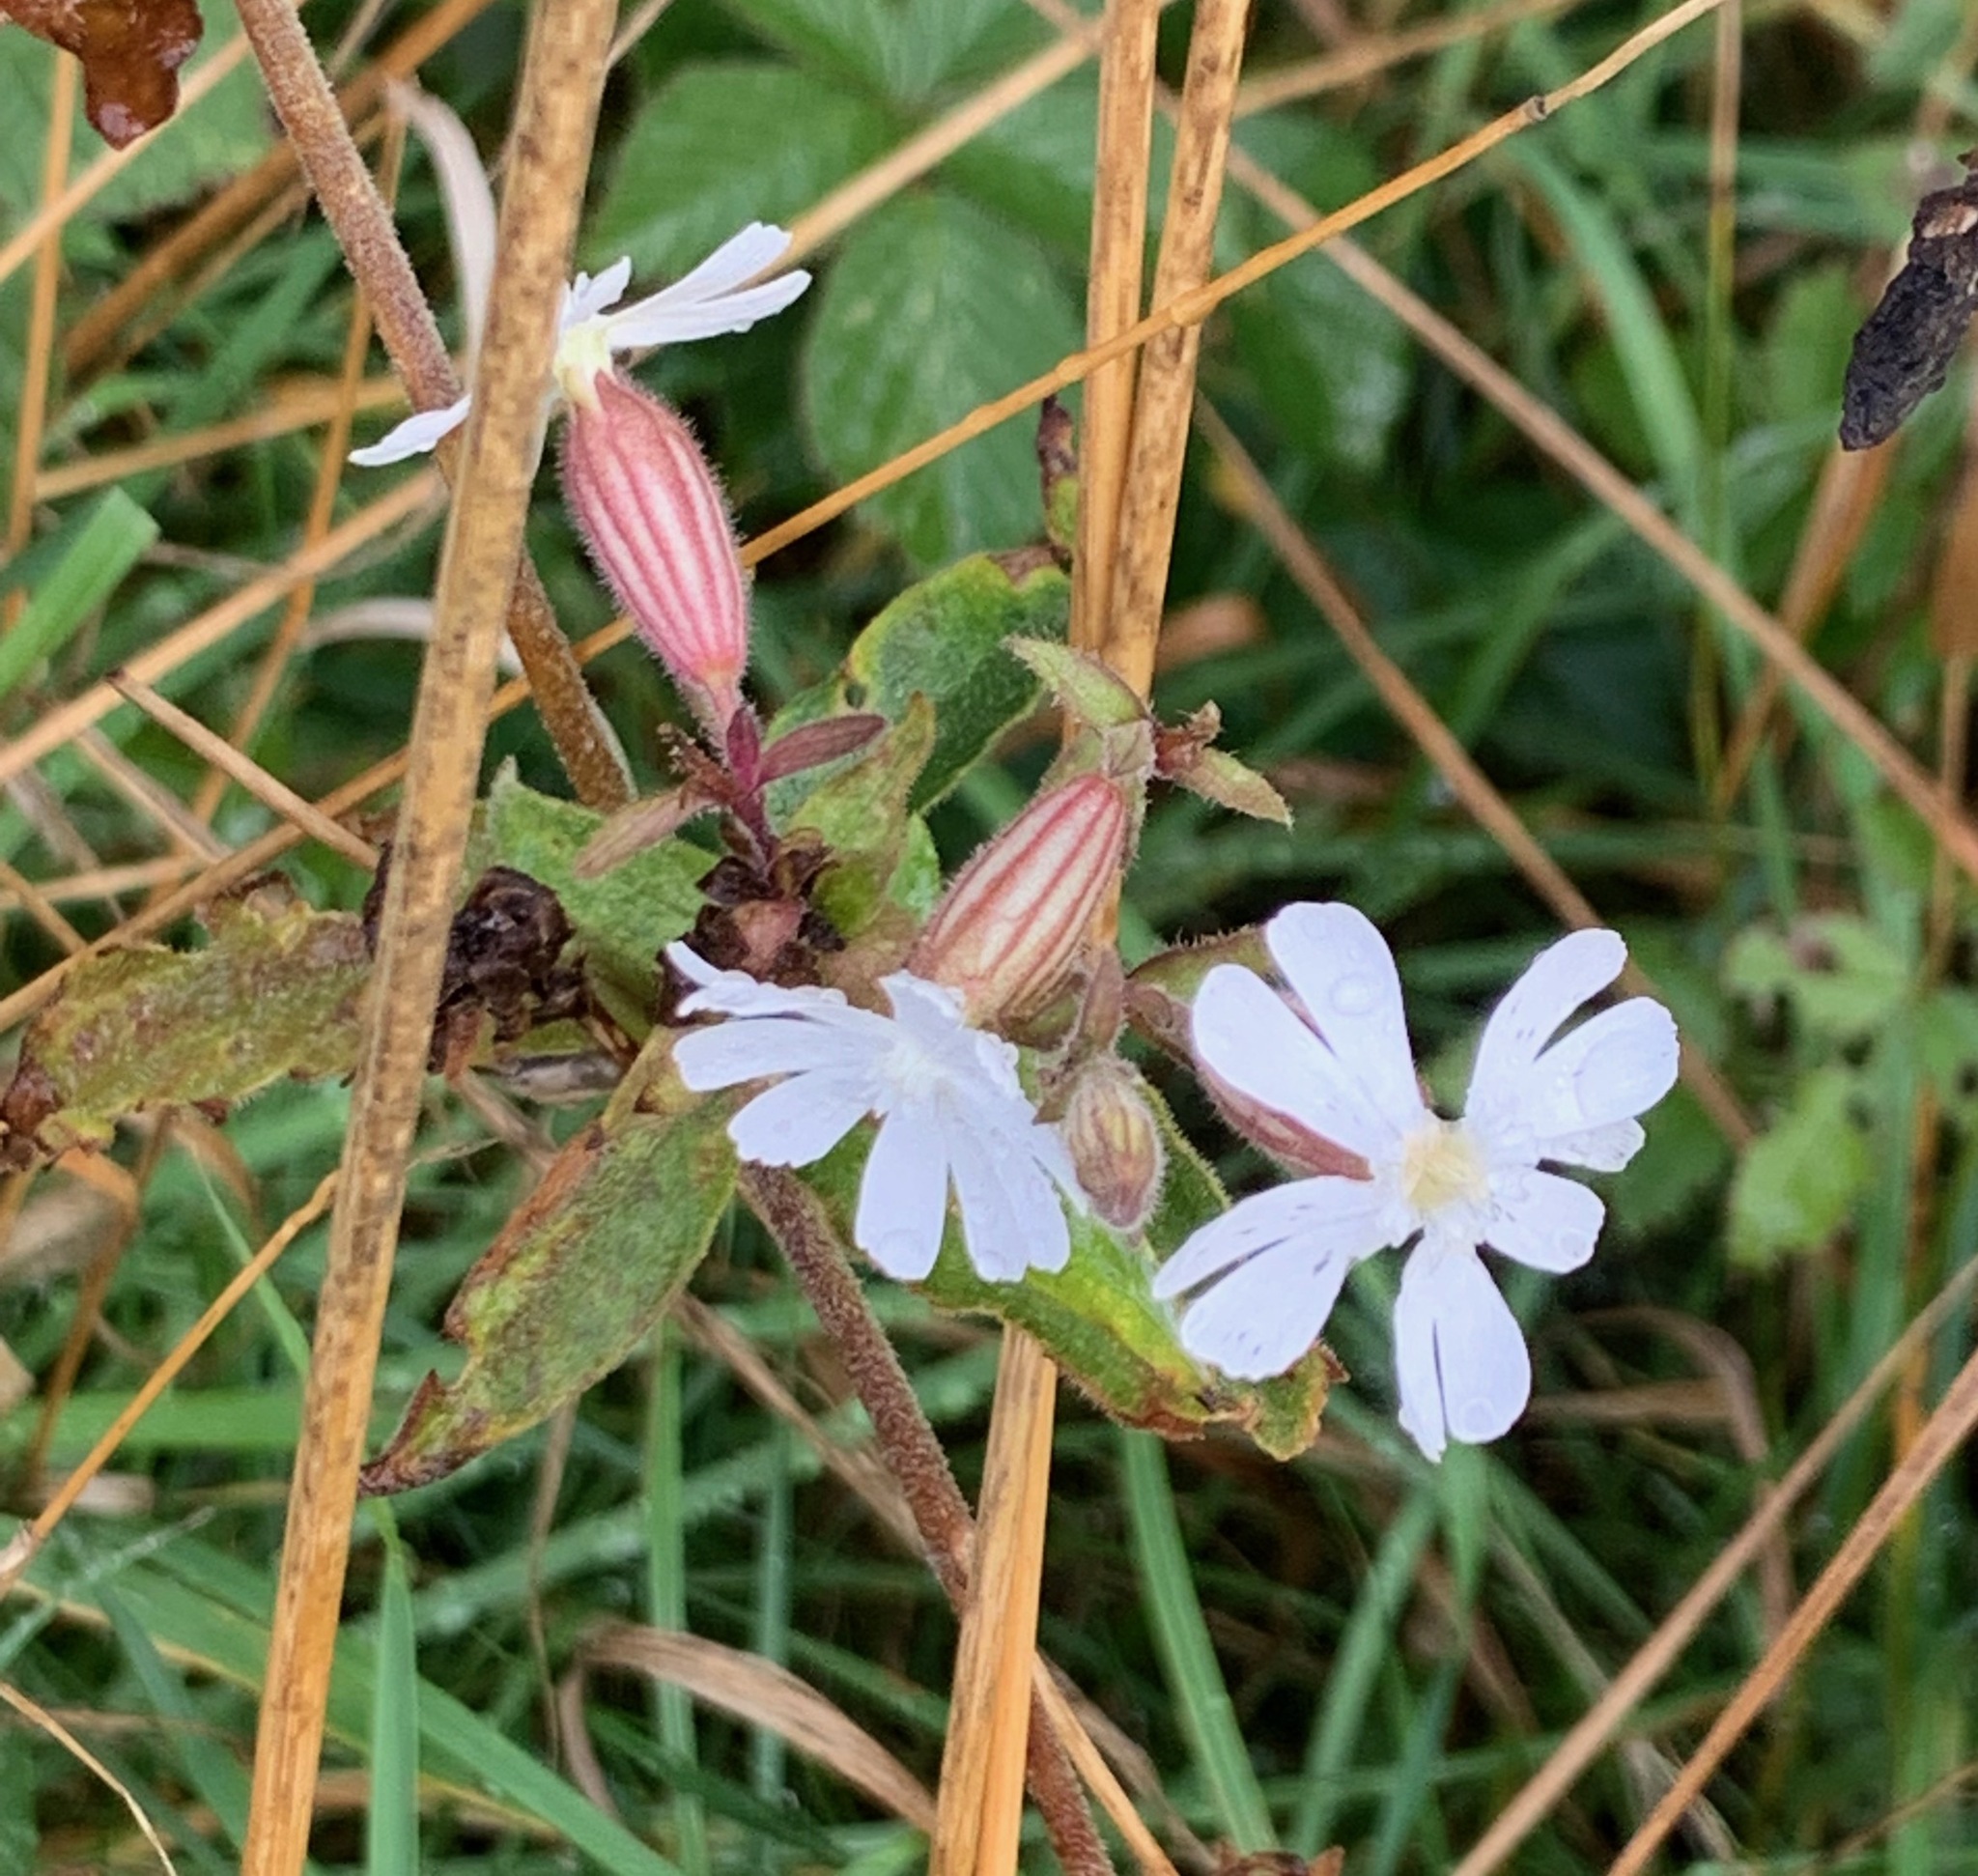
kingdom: Plantae
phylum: Tracheophyta
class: Magnoliopsida
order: Caryophyllales
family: Caryophyllaceae
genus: Silene
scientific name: Silene latifolia
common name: White campion
